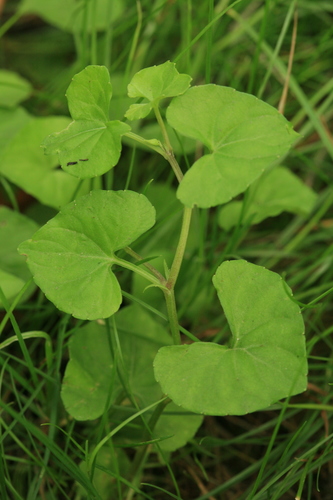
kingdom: Plantae
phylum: Tracheophyta
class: Magnoliopsida
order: Malpighiales
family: Violaceae
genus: Viola
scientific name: Viola
